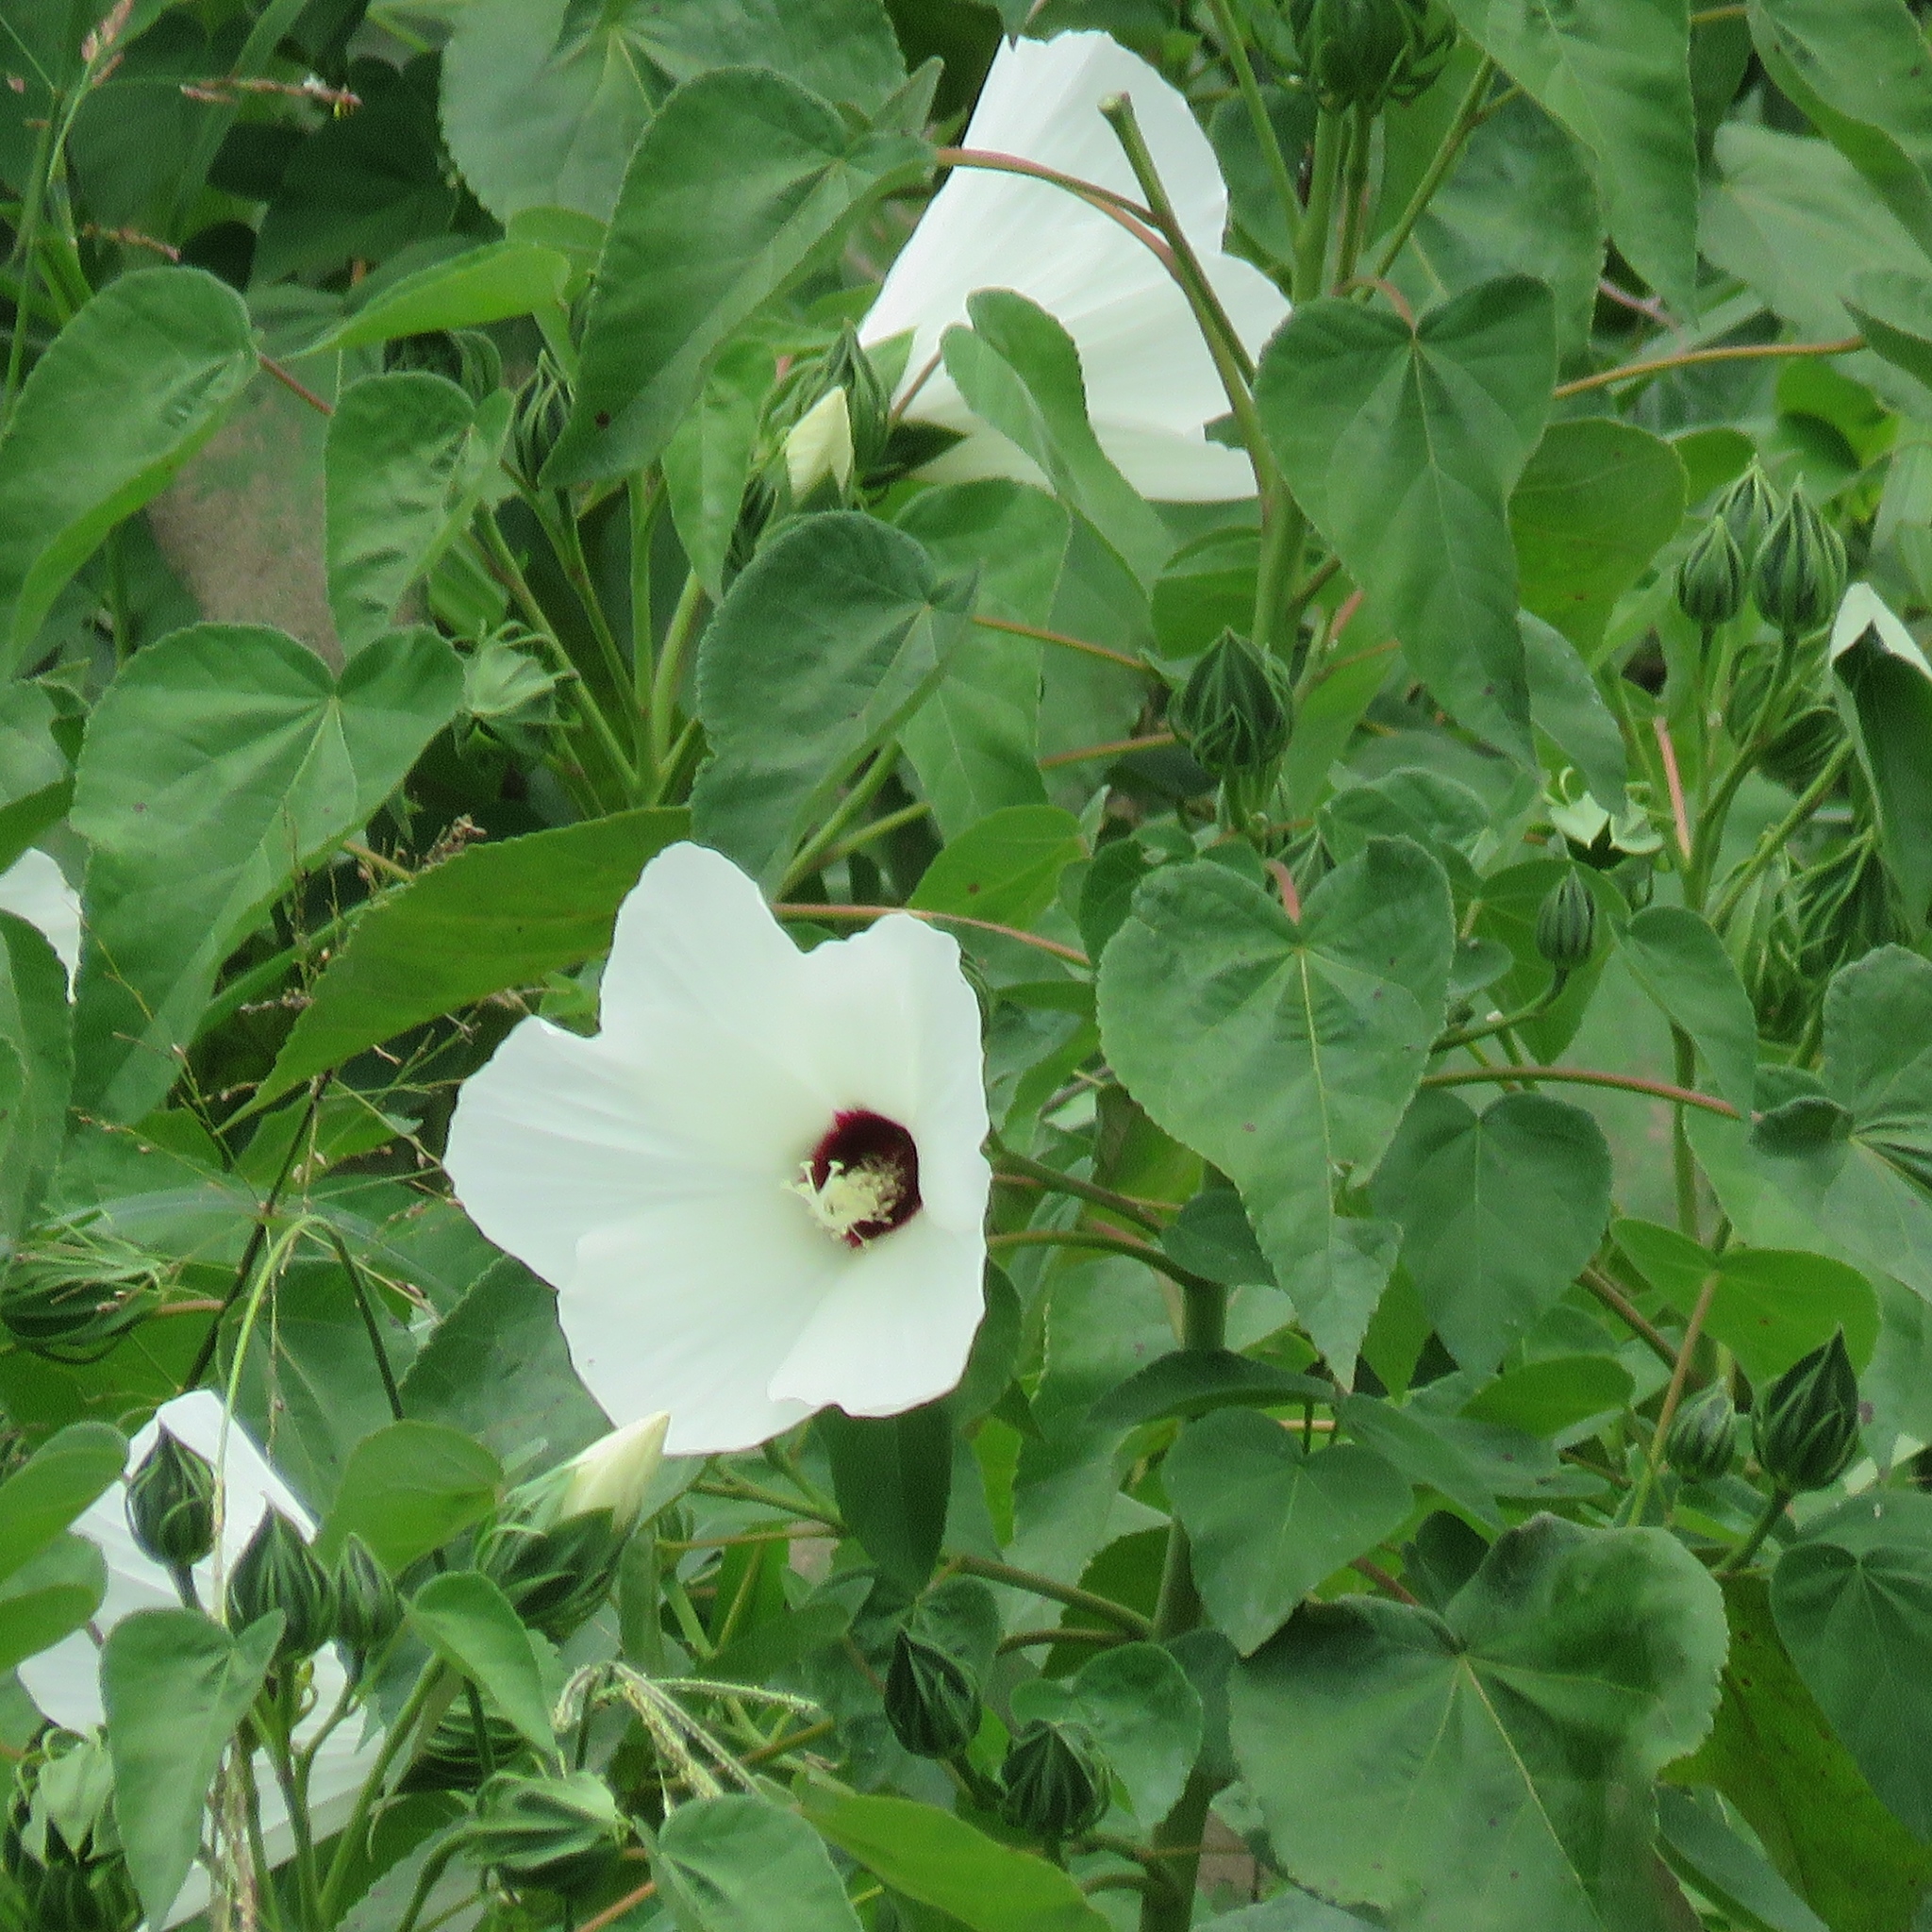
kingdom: Plantae
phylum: Tracheophyta
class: Magnoliopsida
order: Malvales
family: Malvaceae
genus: Hibiscus
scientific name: Hibiscus moscheutos
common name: Common rose-mallow
